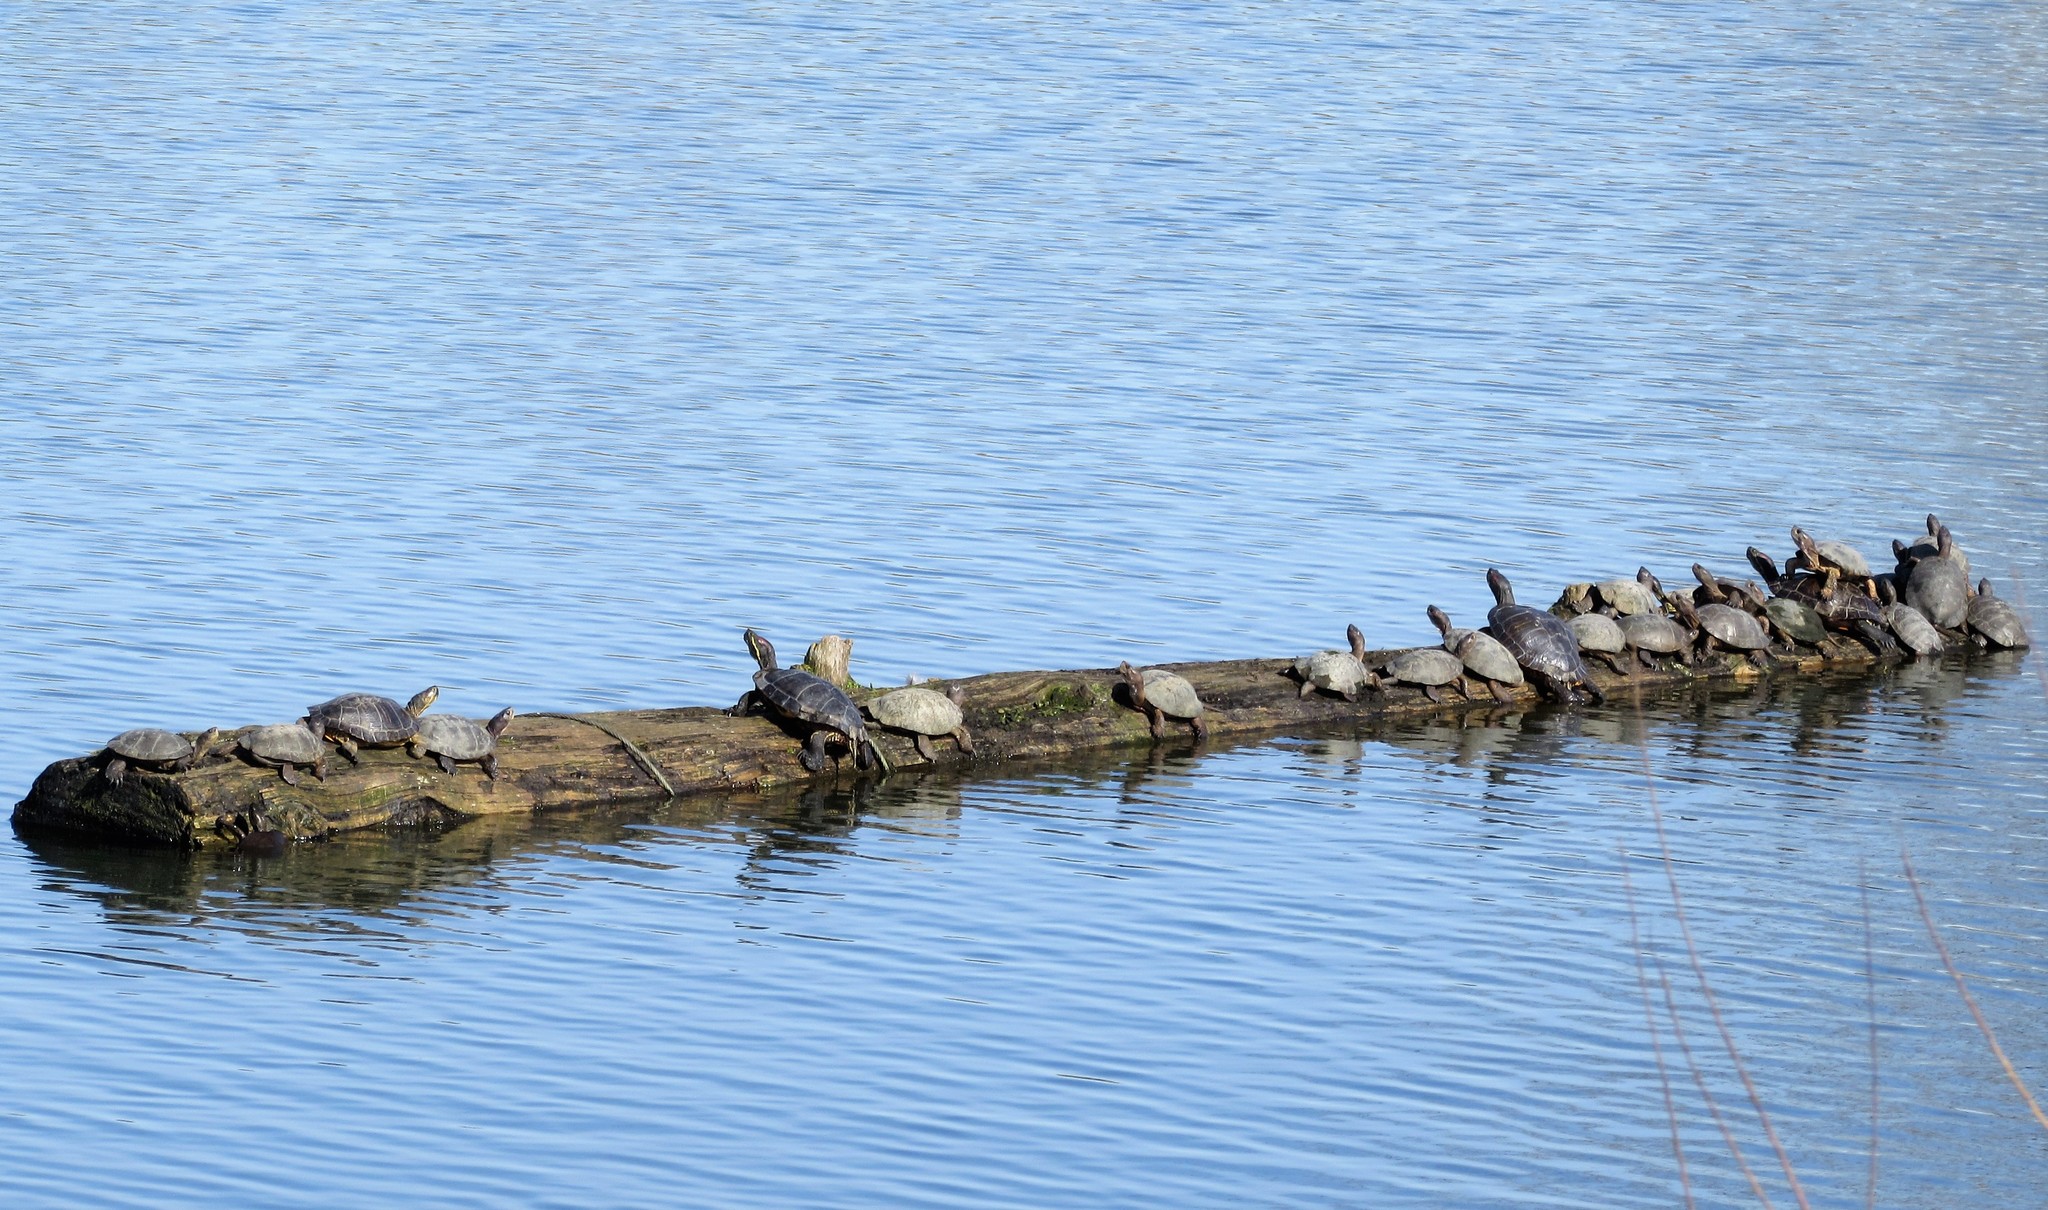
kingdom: Animalia
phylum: Chordata
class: Testudines
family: Emydidae
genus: Actinemys
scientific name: Actinemys marmorata
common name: Western pond turtle
